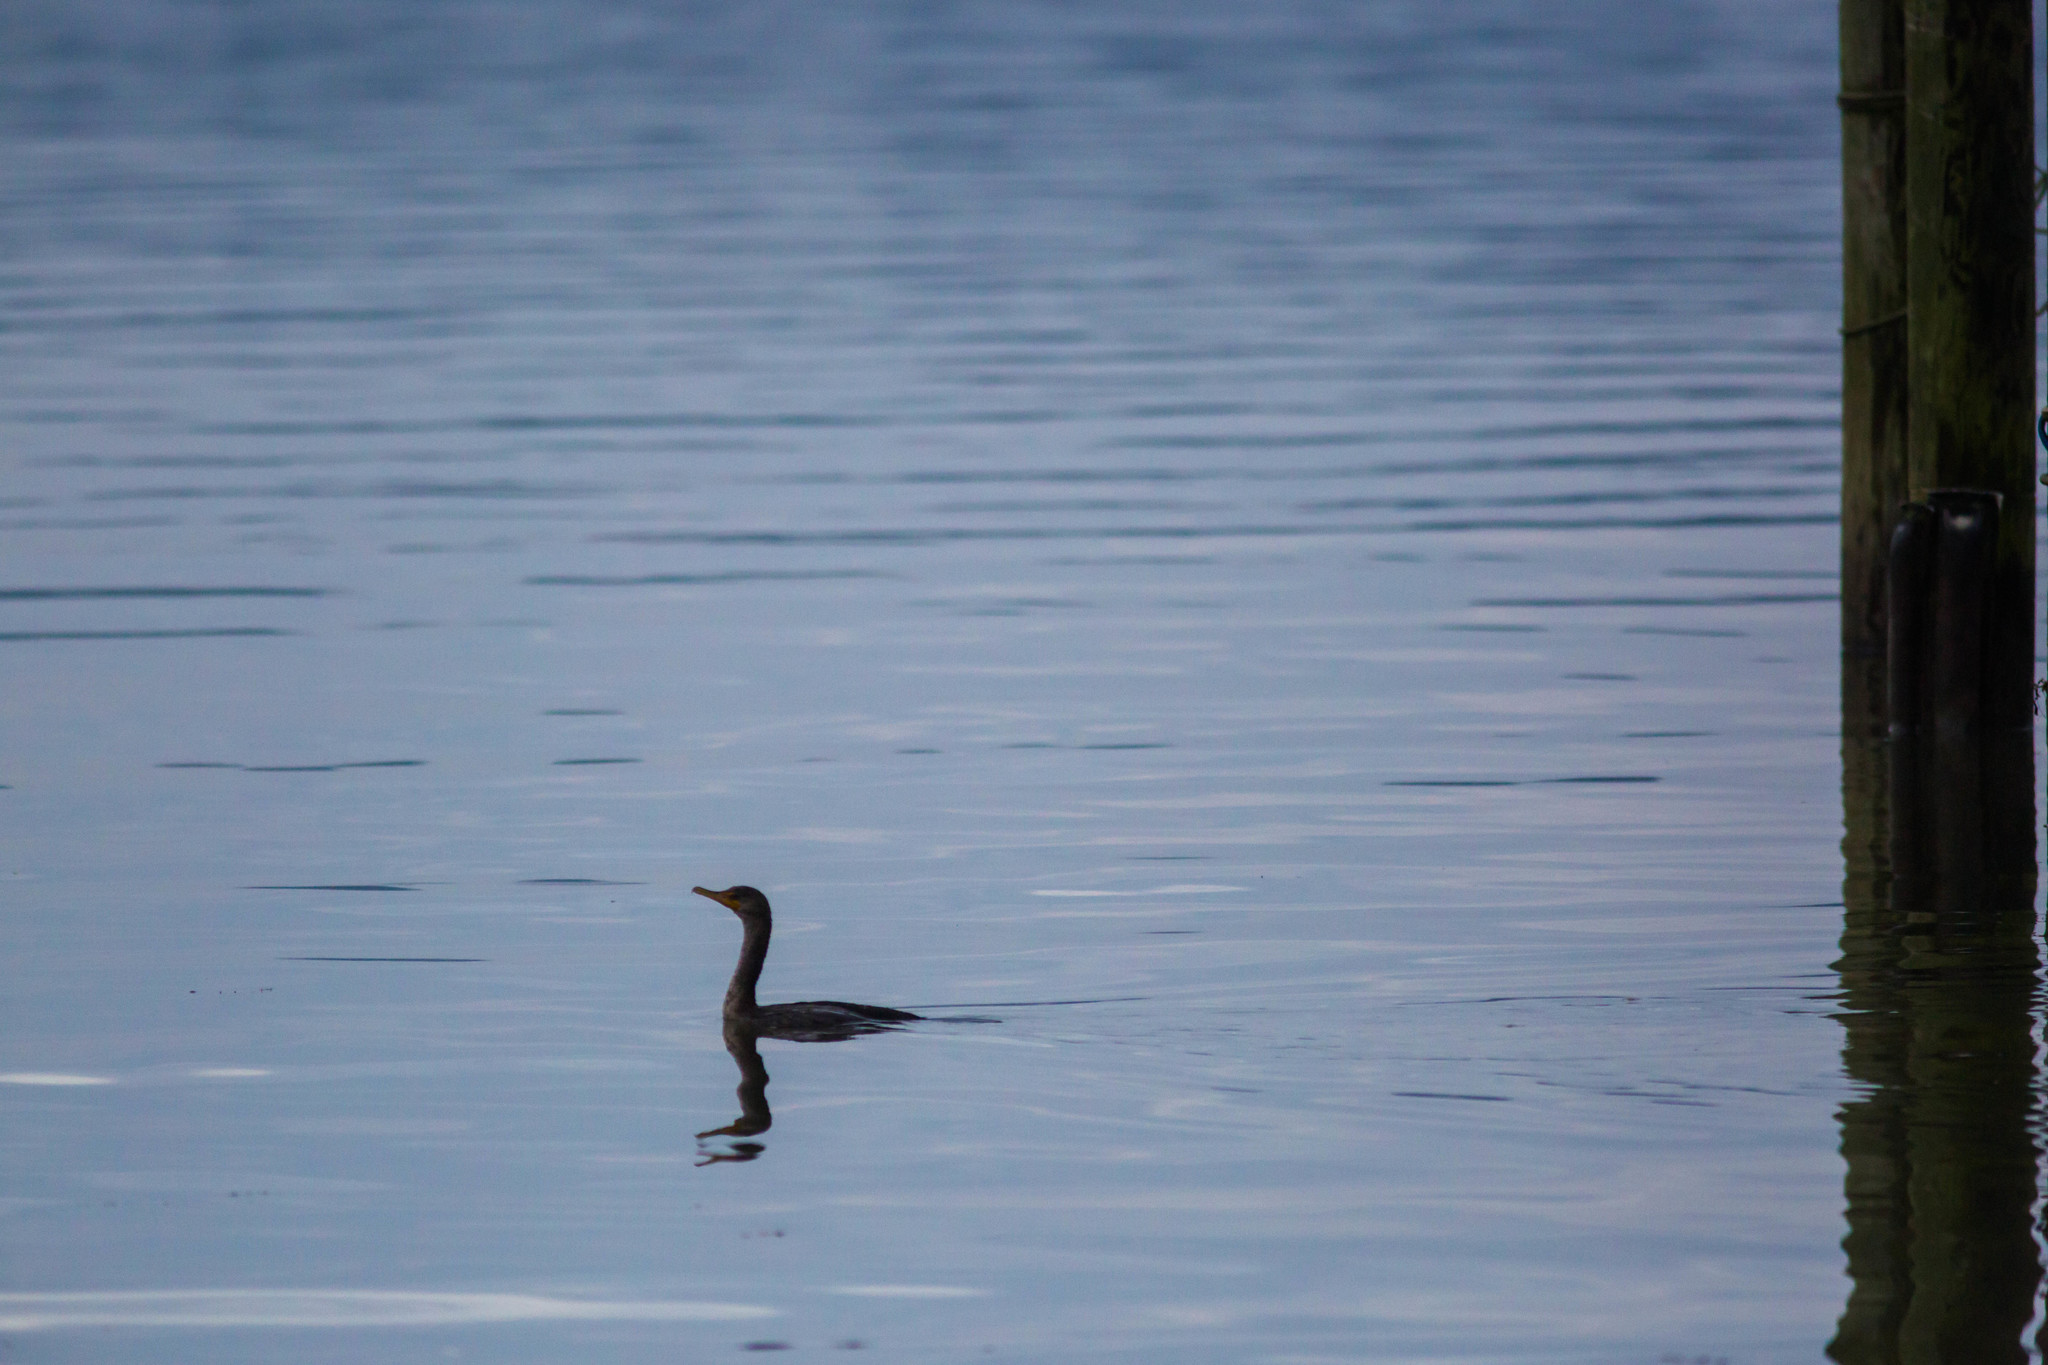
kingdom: Animalia
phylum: Chordata
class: Aves
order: Suliformes
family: Phalacrocoracidae
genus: Phalacrocorax
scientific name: Phalacrocorax auritus
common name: Double-crested cormorant
